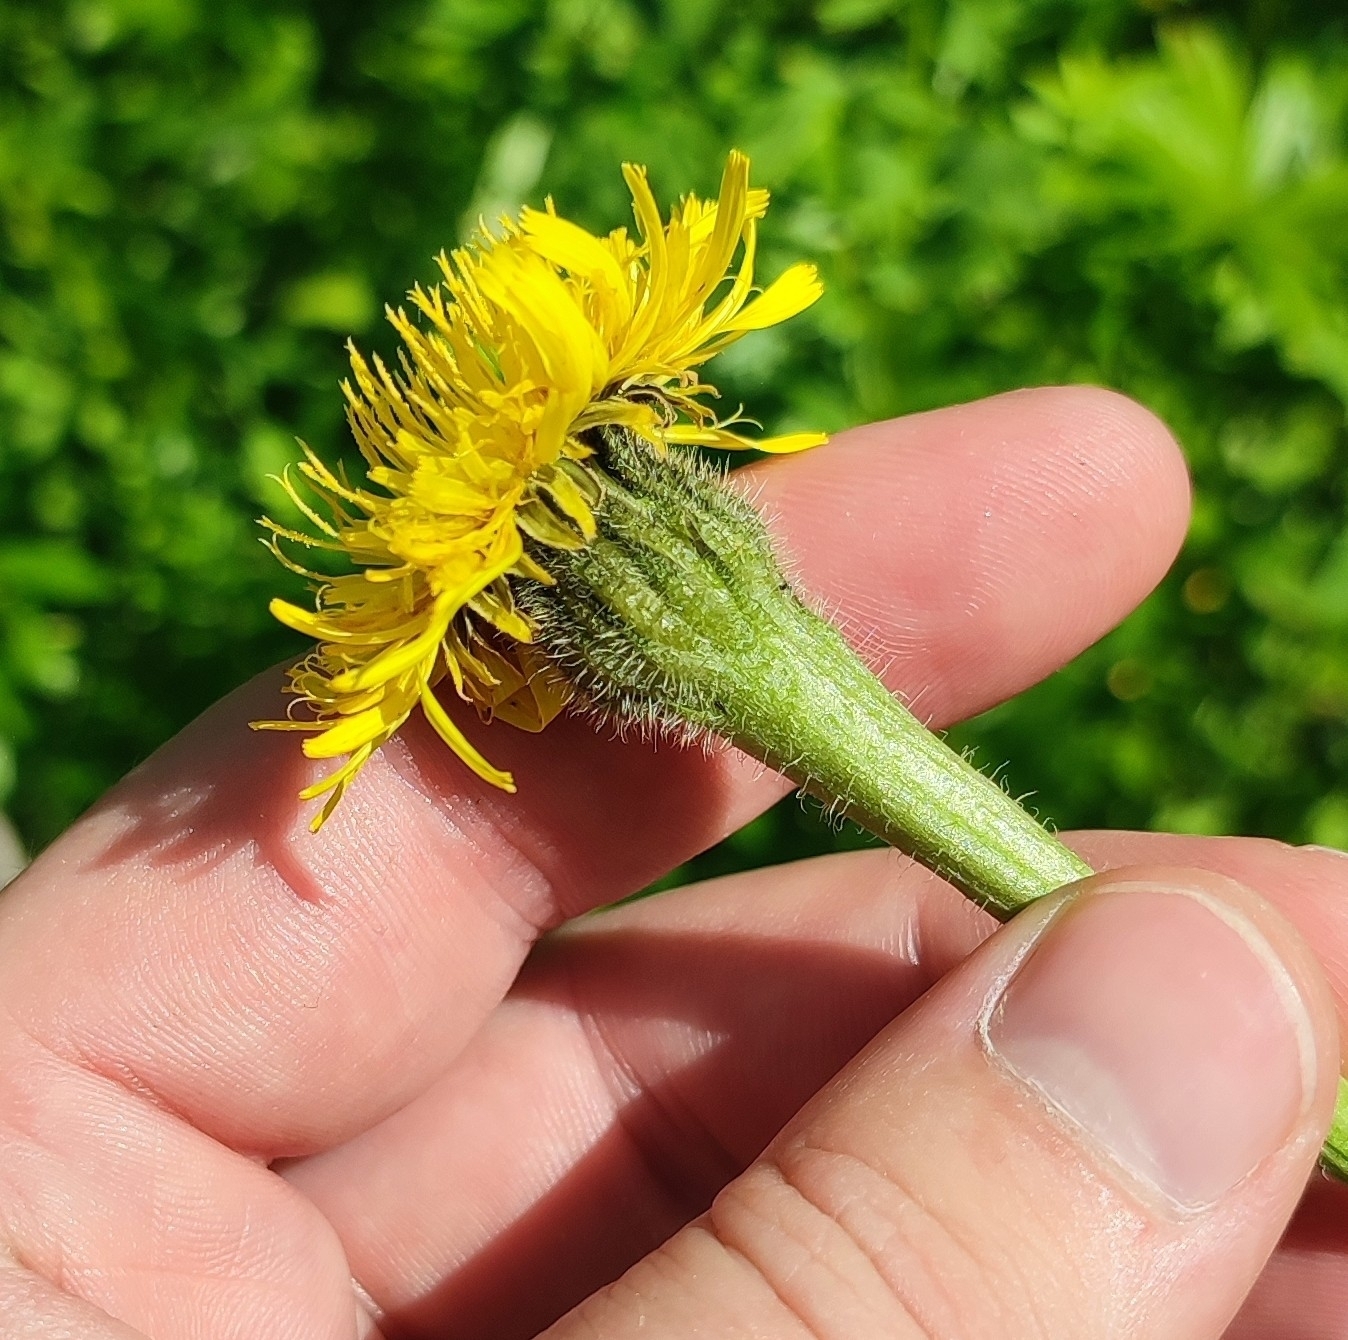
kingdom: Plantae
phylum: Tracheophyta
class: Magnoliopsida
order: Asterales
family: Asteraceae
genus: Trommsdorffia
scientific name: Trommsdorffia maculata
